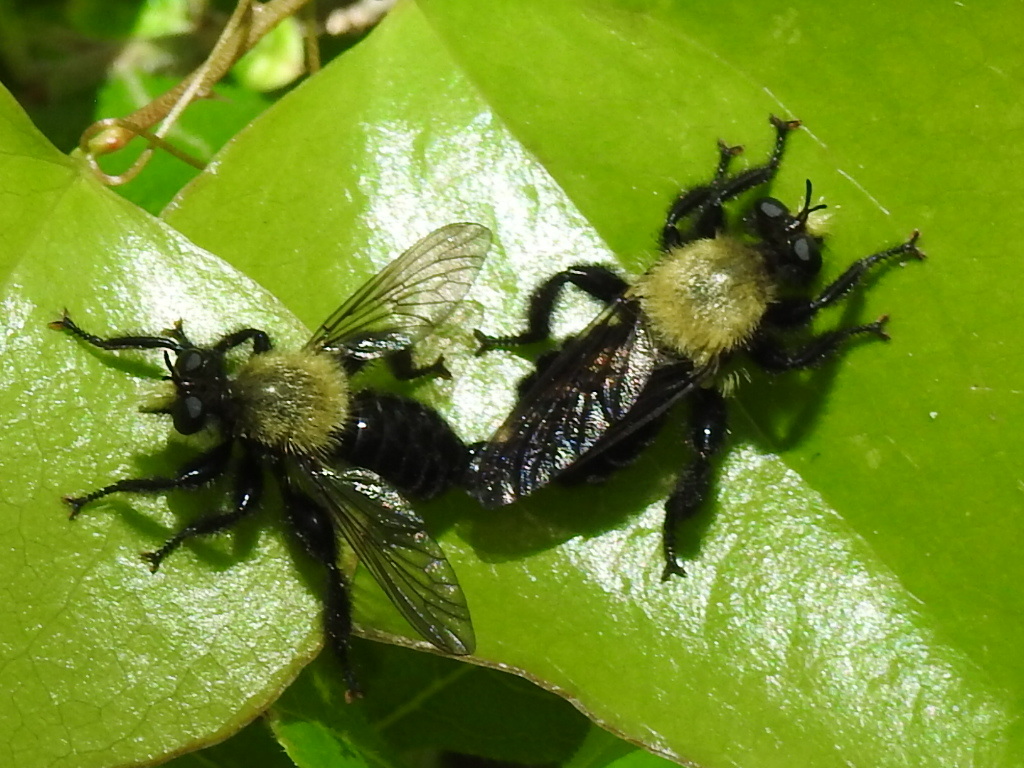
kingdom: Animalia
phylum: Arthropoda
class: Insecta
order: Diptera
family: Asilidae
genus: Laphria
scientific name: Laphria flavicollis
